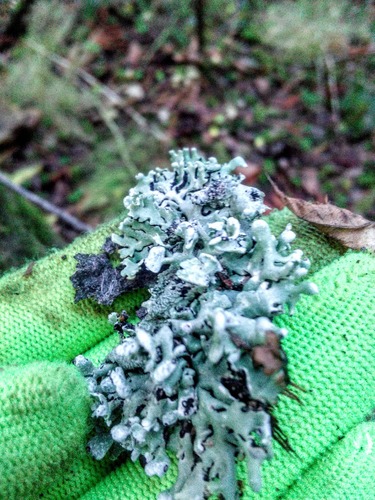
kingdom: Fungi
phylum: Ascomycota
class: Lecanoromycetes
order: Lecanorales
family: Parmeliaceae
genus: Hypogymnia
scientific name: Hypogymnia tubulosa
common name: Powder-headed tube lichen
